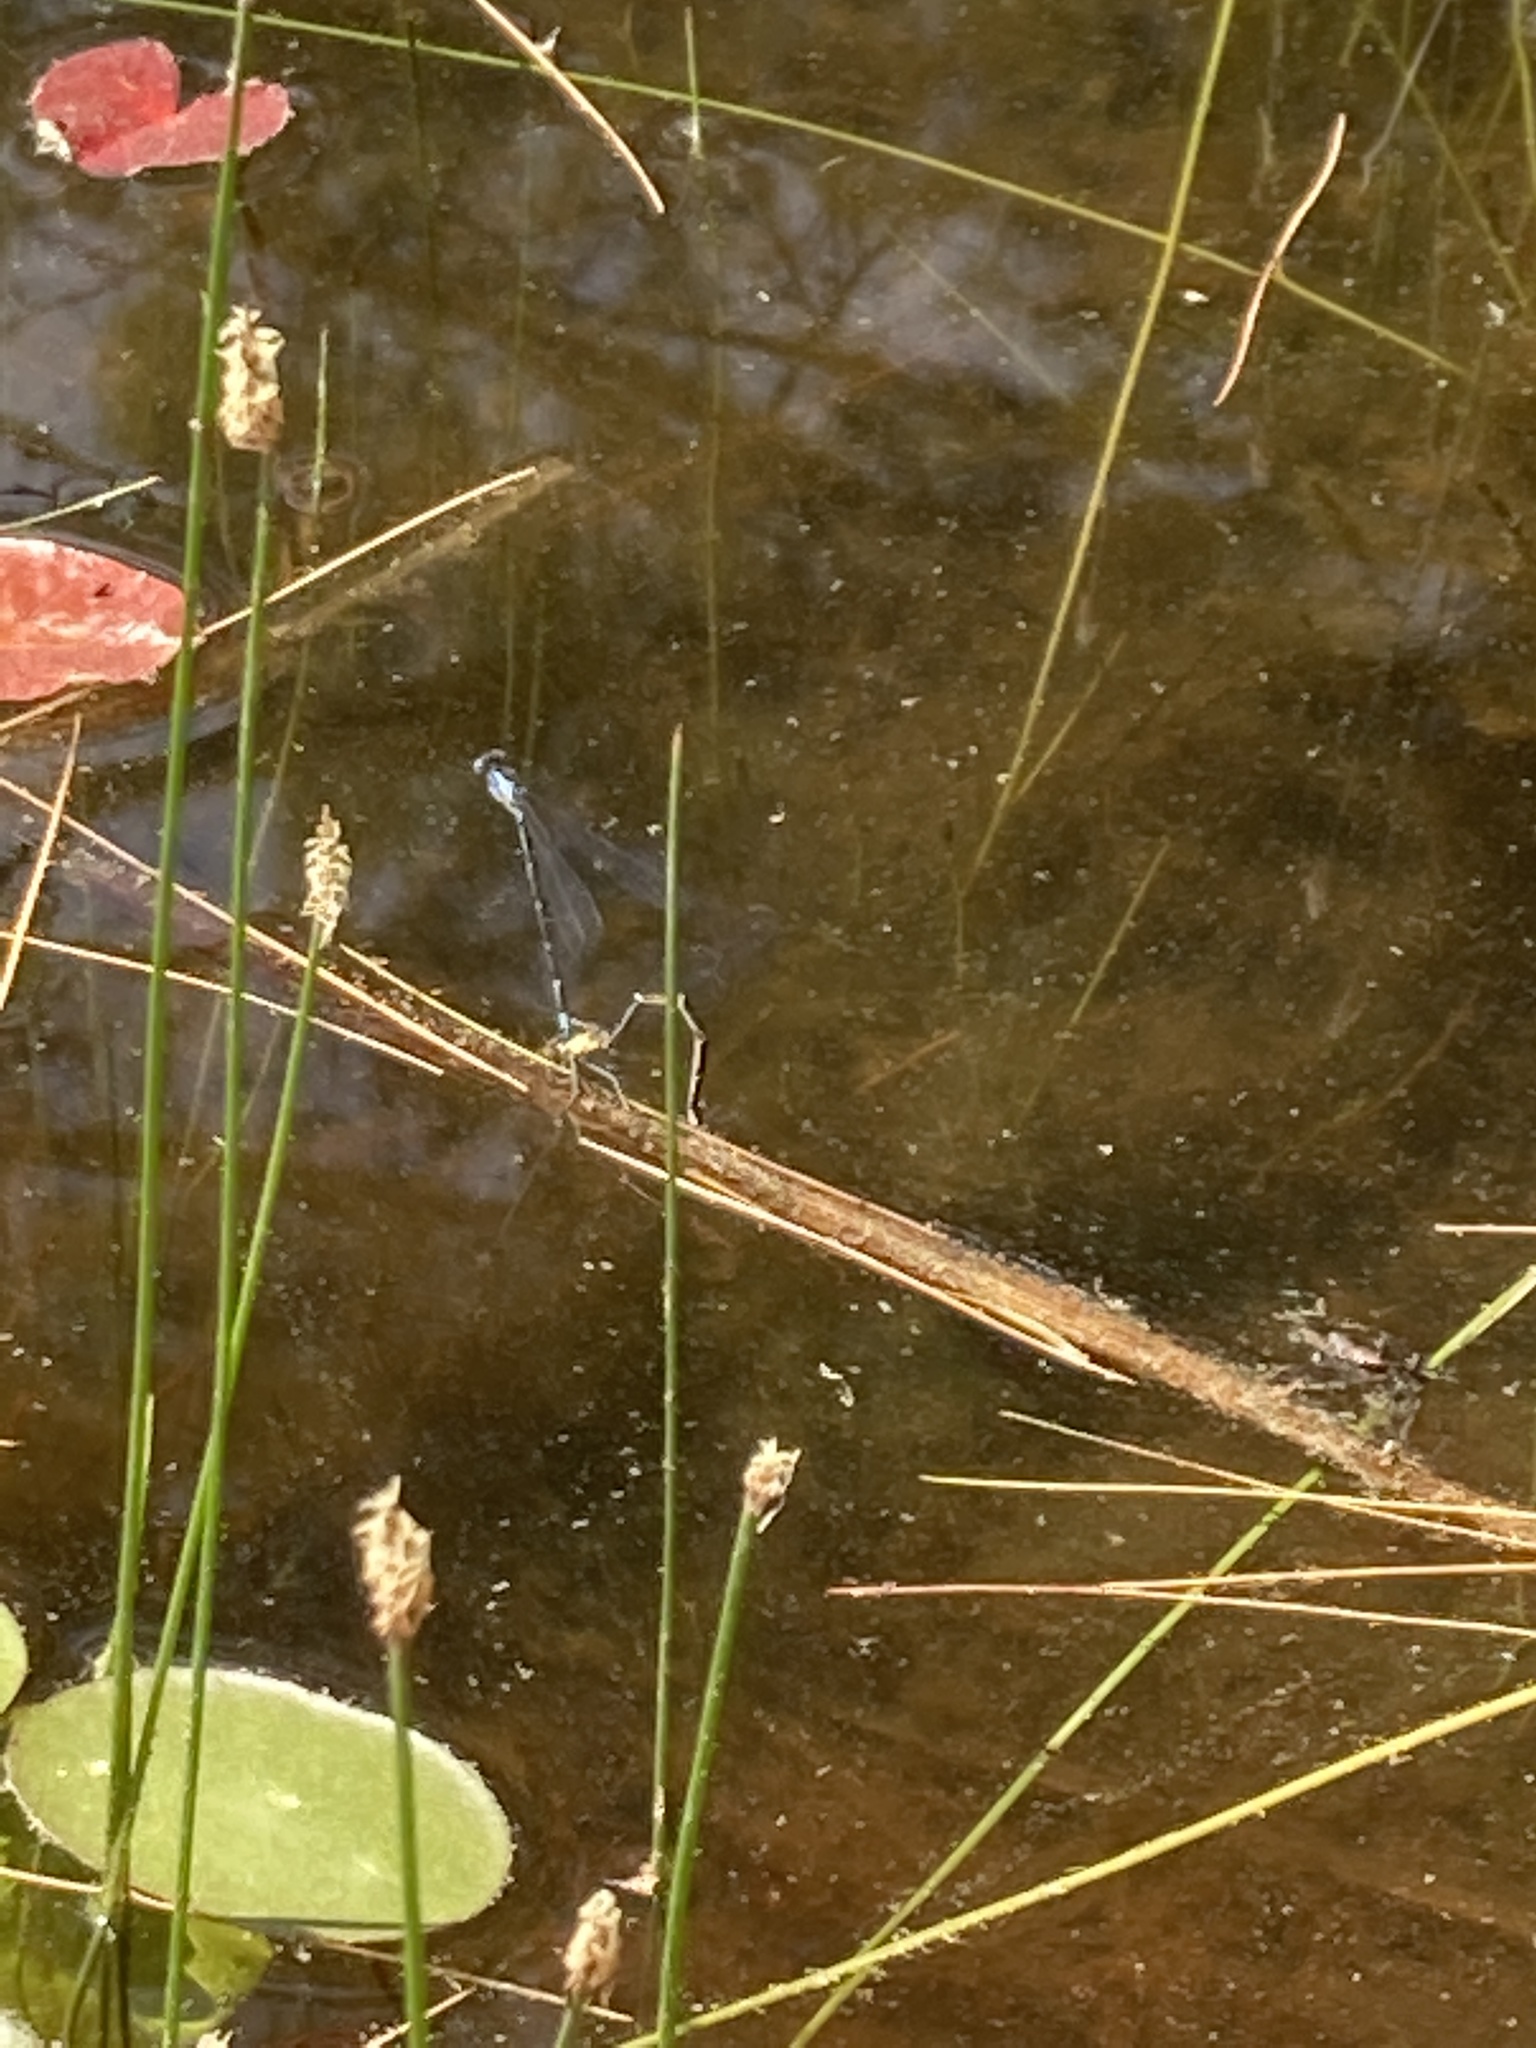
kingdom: Animalia
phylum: Arthropoda
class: Insecta
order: Odonata
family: Coenagrionidae
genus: Chromagrion
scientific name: Chromagrion conditum
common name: Aurora damsel
